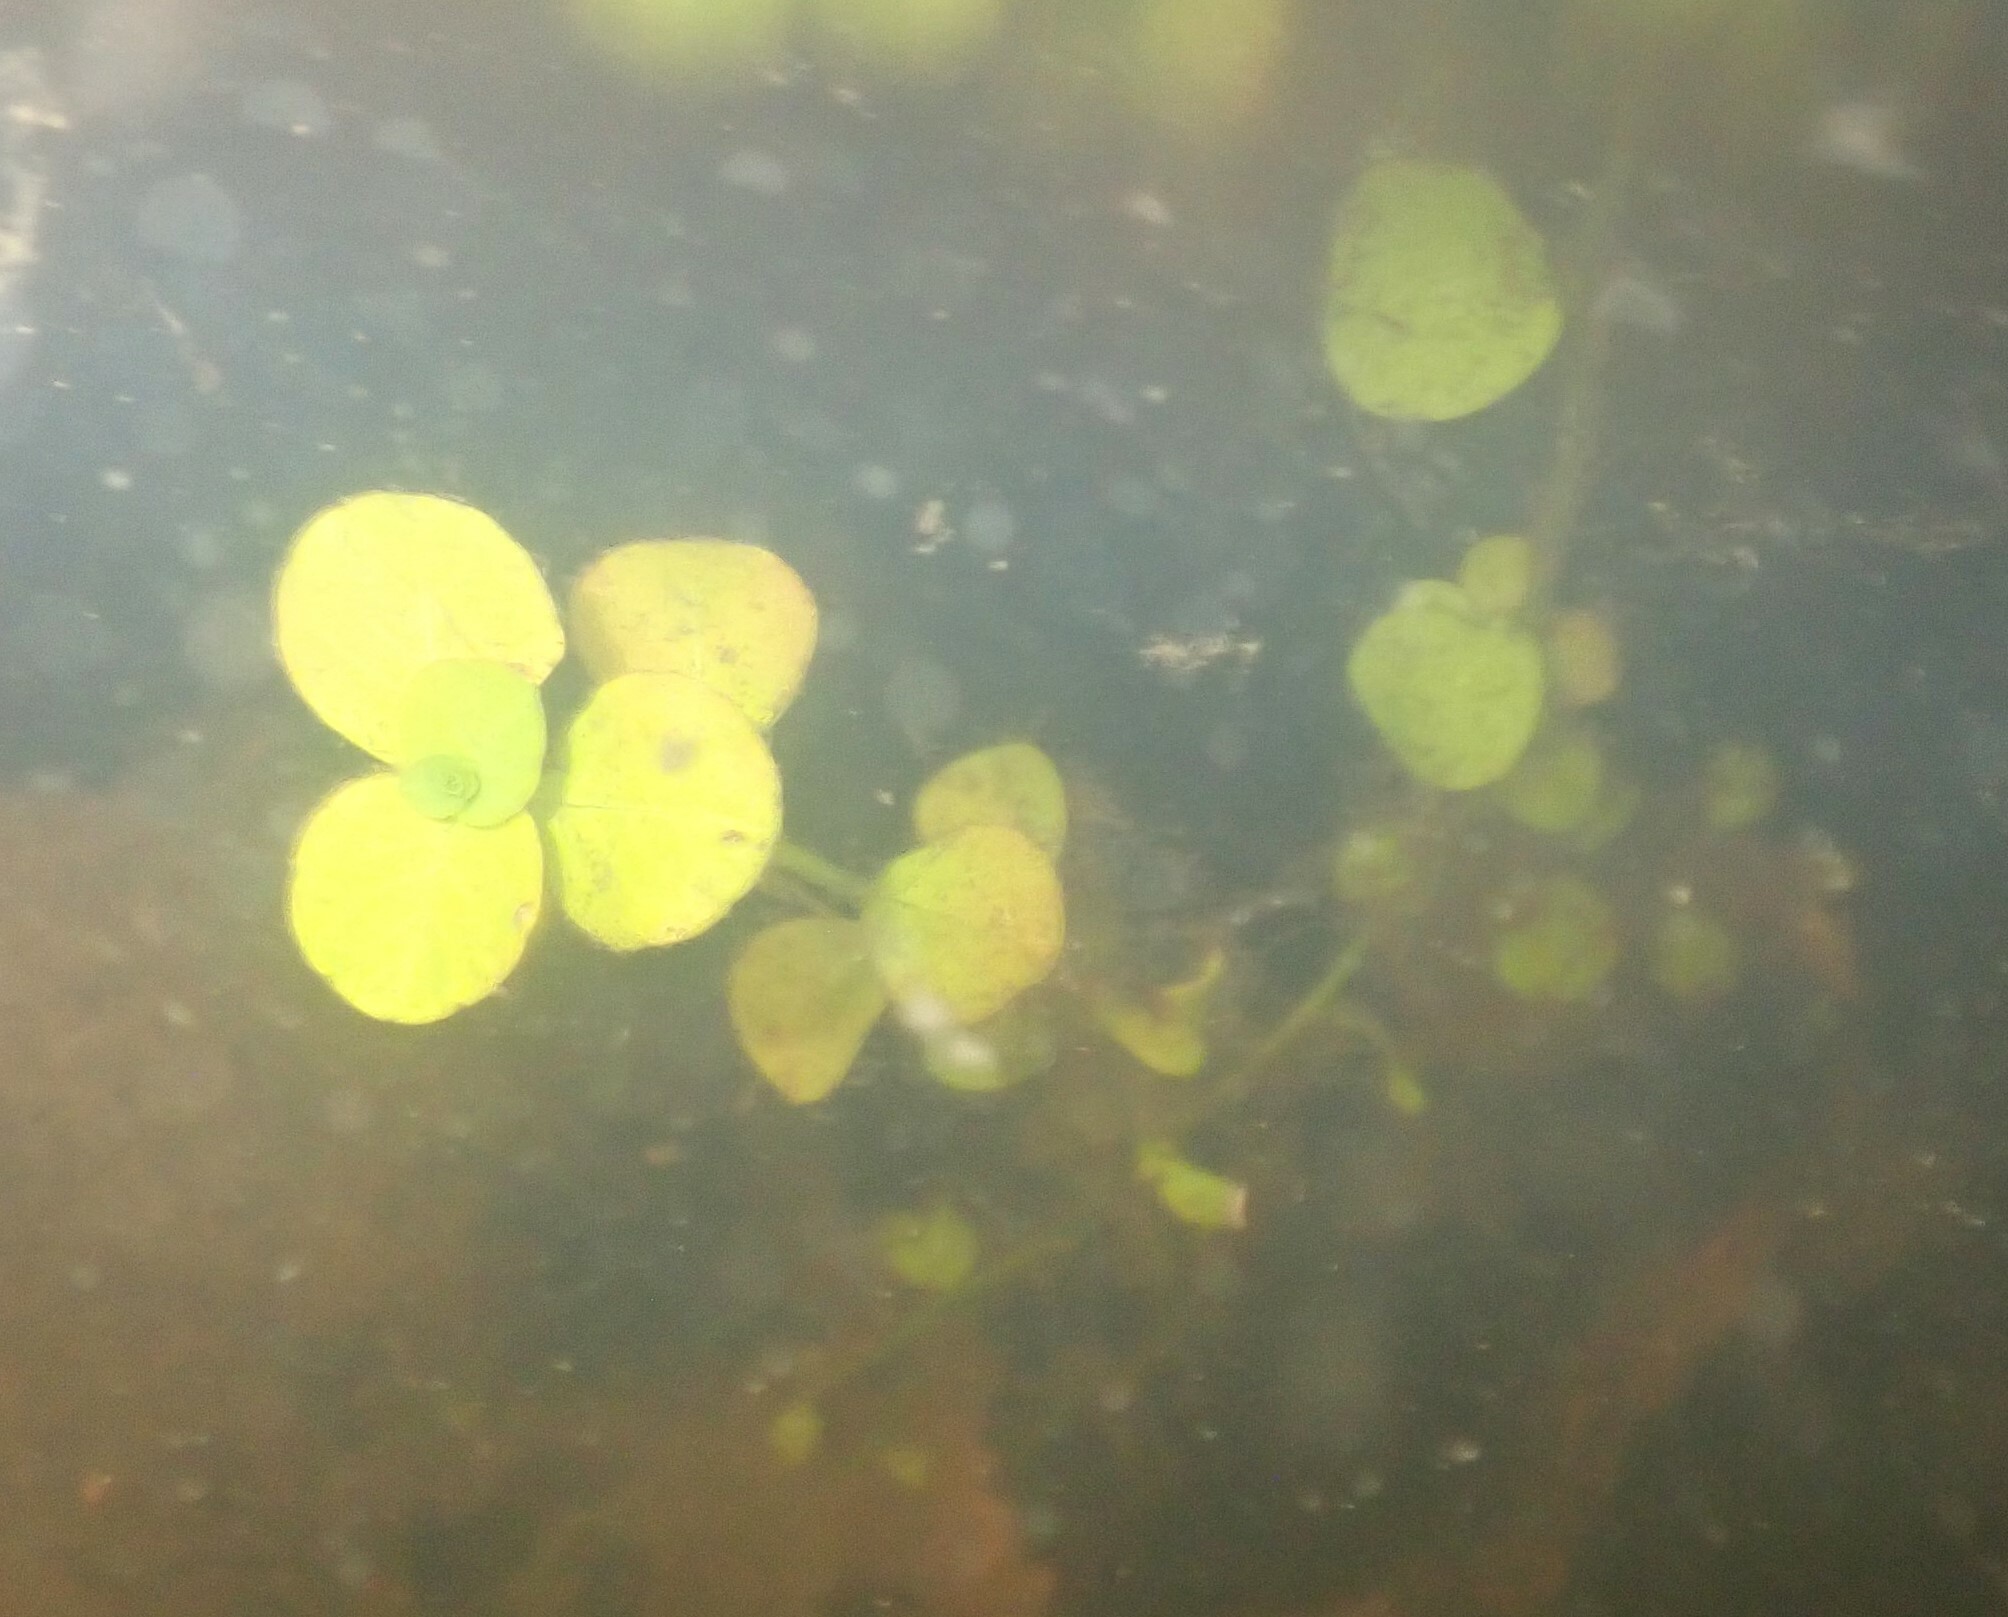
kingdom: Plantae
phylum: Tracheophyta
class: Magnoliopsida
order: Myrtales
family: Onagraceae
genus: Ludwigia
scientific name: Ludwigia peploides
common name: Floating primrose-willow
